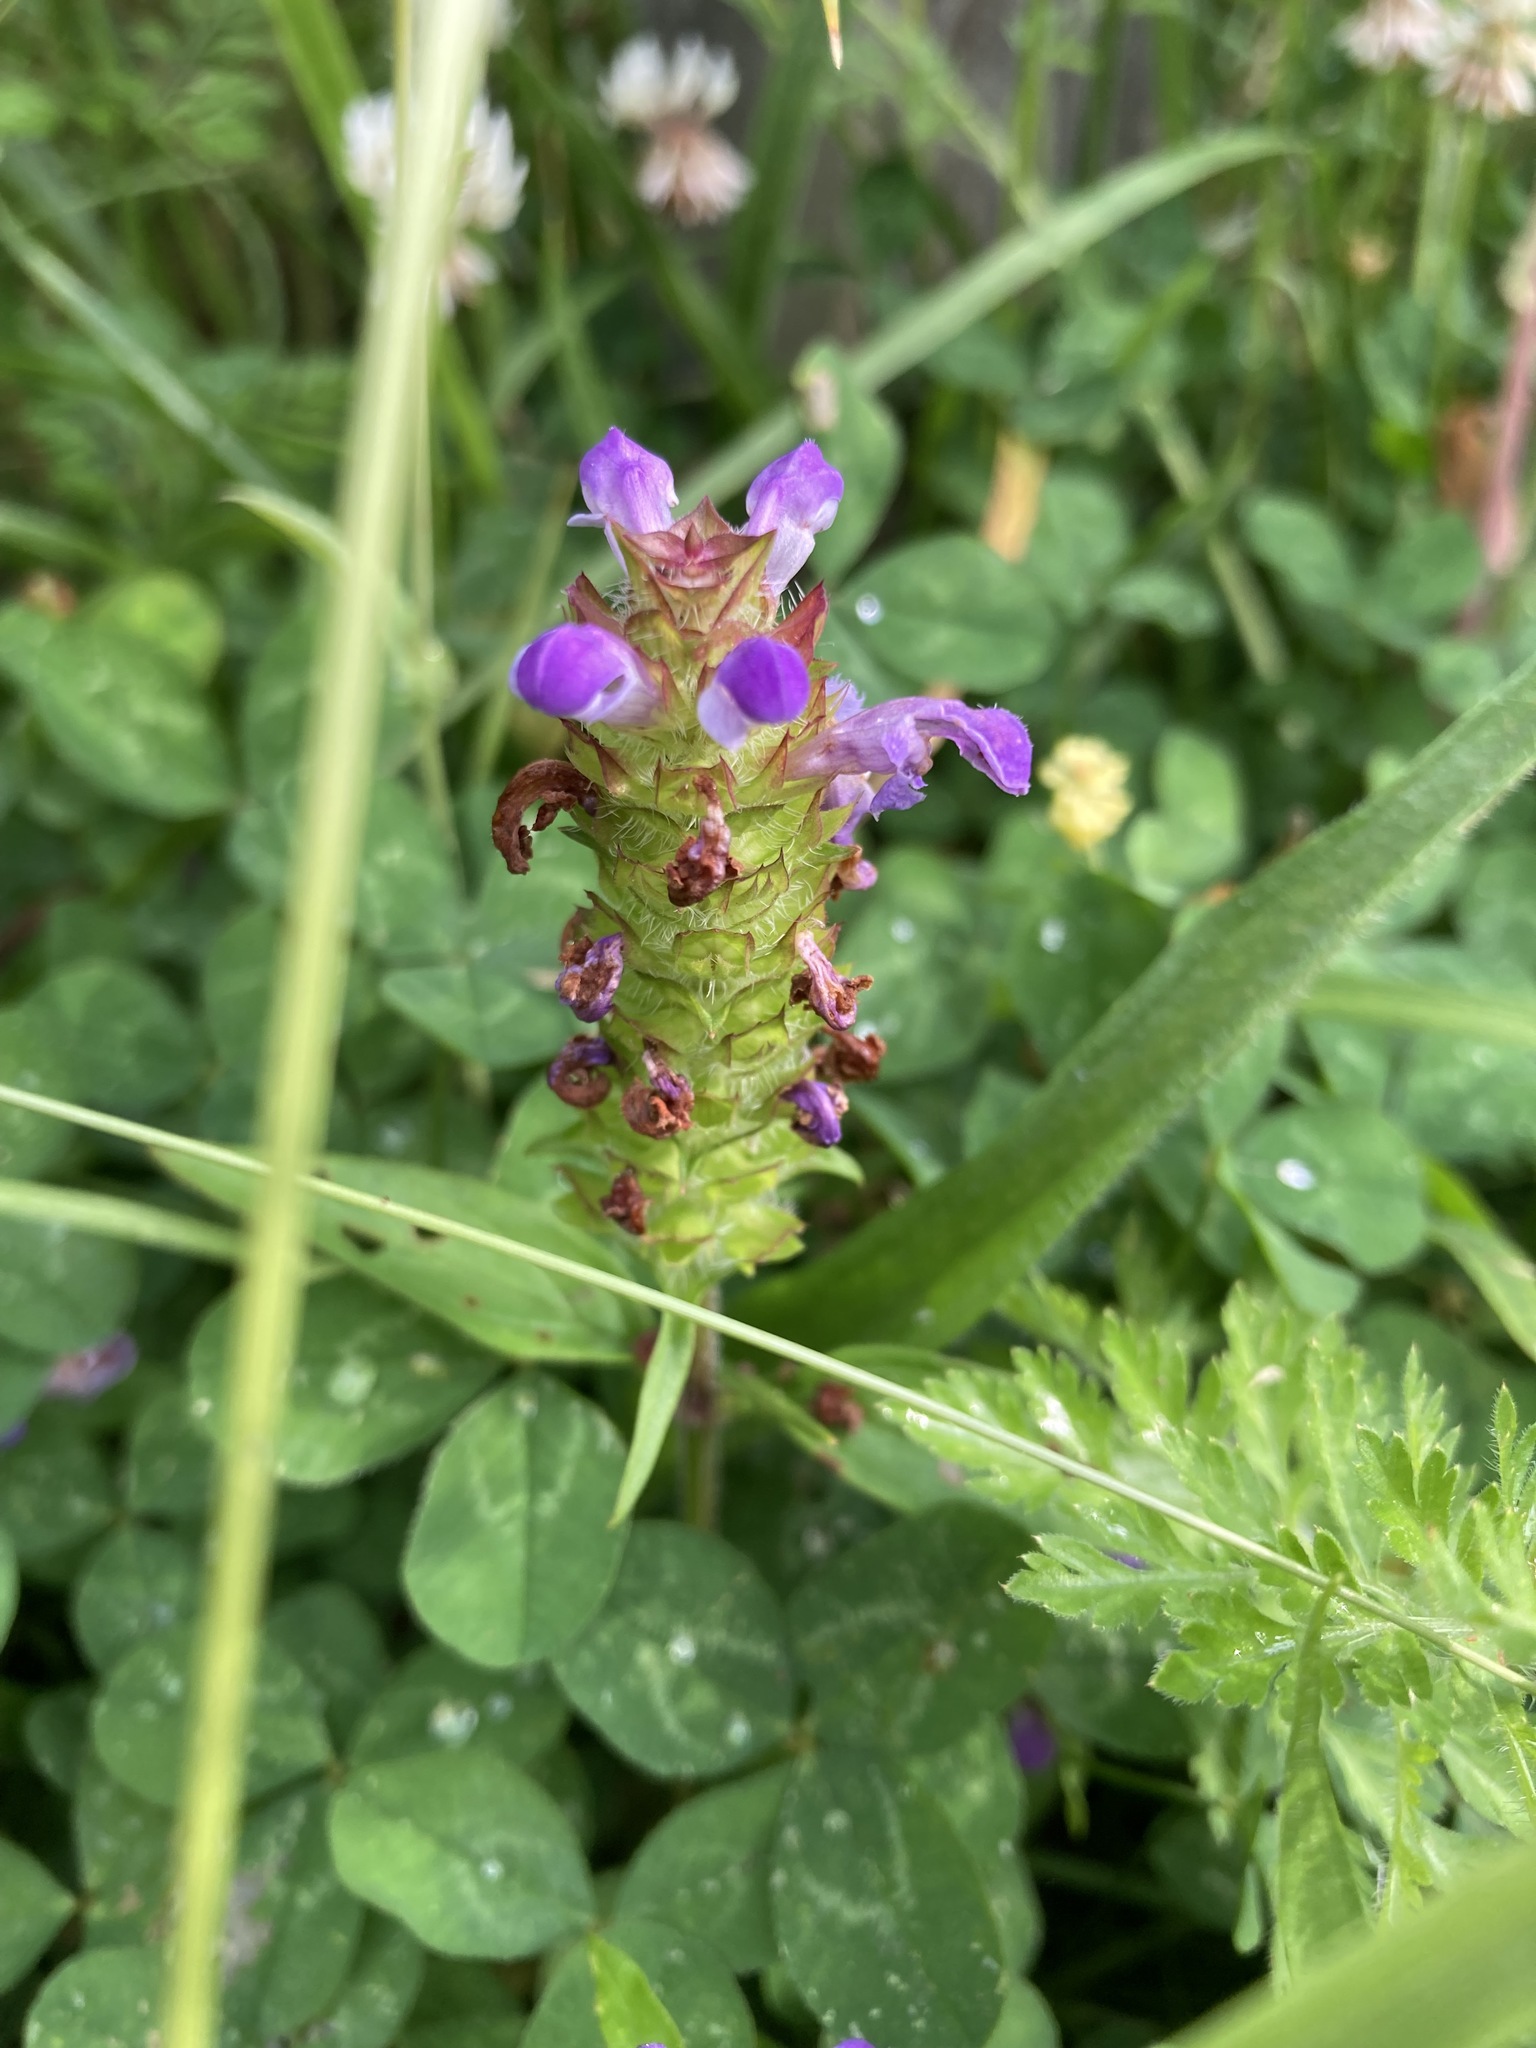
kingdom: Plantae
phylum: Tracheophyta
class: Magnoliopsida
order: Lamiales
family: Lamiaceae
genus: Prunella
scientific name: Prunella vulgaris
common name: Heal-all
